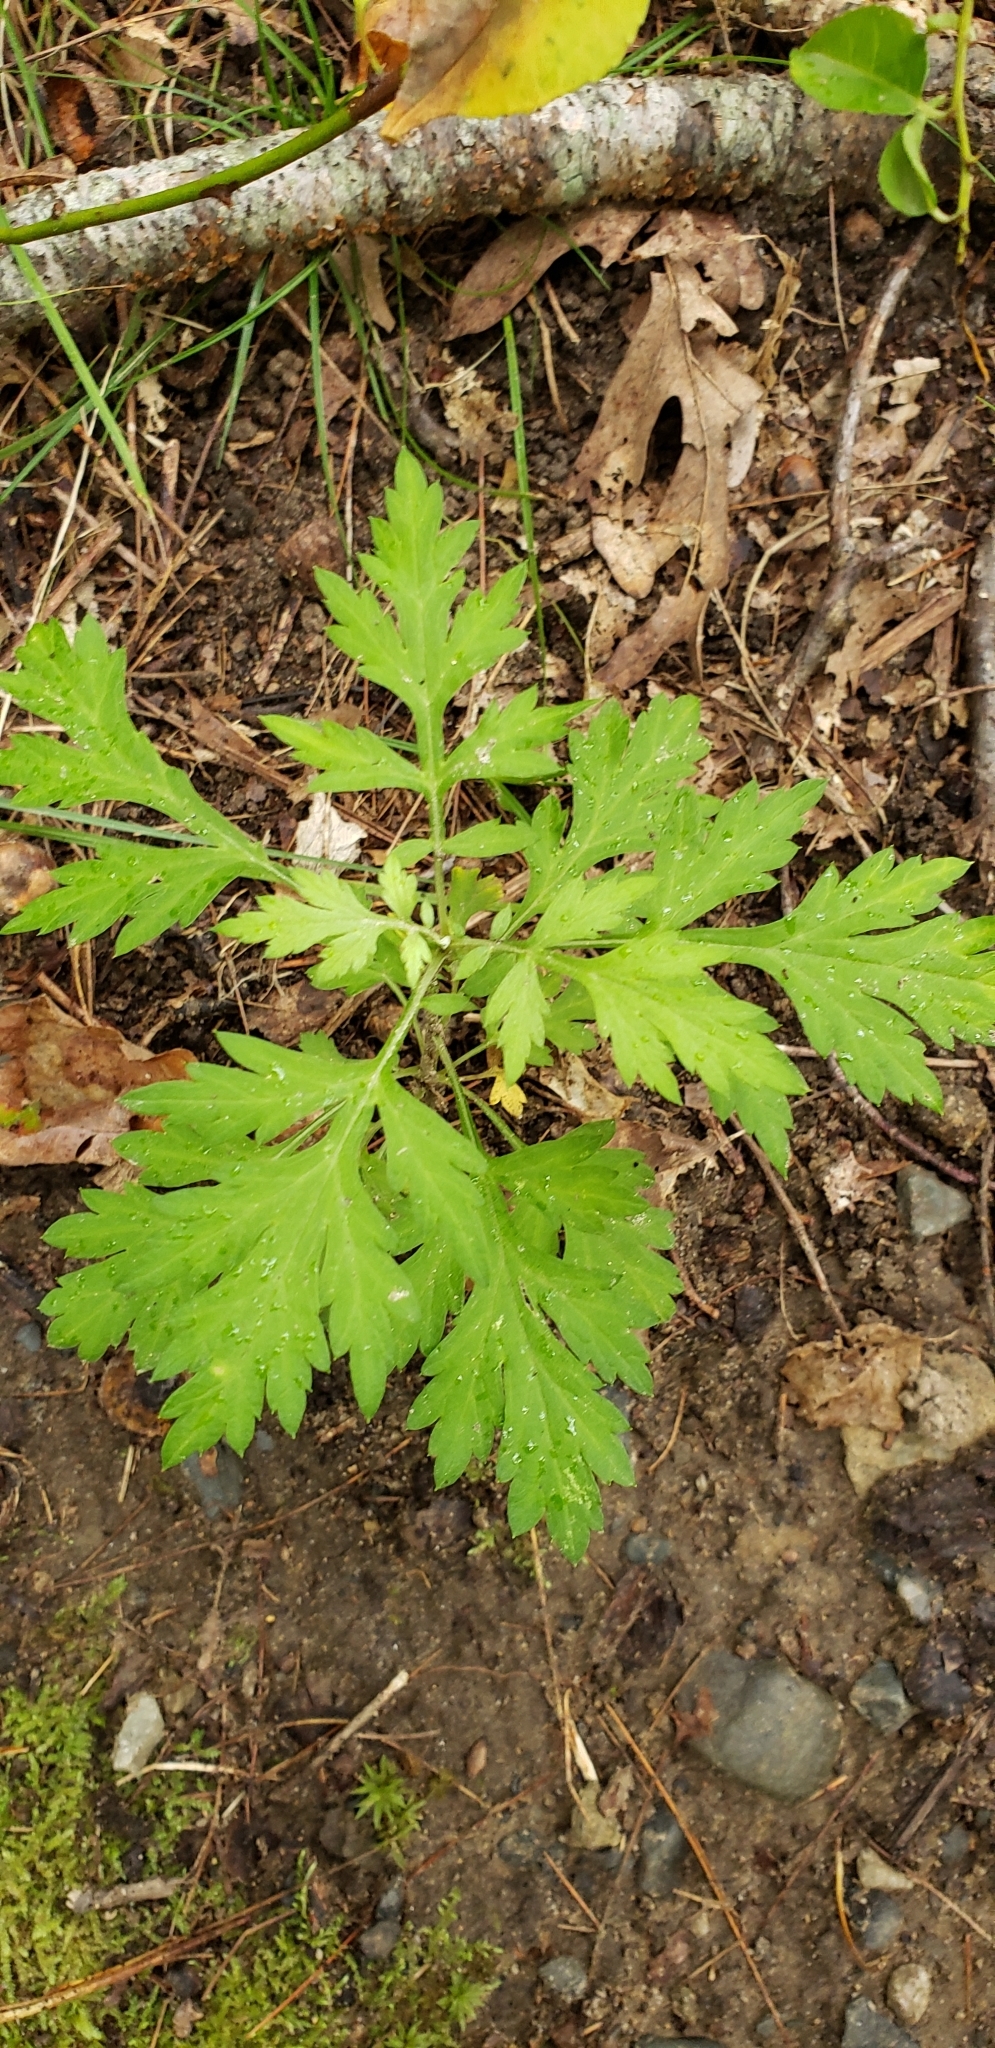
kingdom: Plantae
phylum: Tracheophyta
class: Magnoliopsida
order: Asterales
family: Asteraceae
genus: Artemisia
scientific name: Artemisia vulgaris
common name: Mugwort
